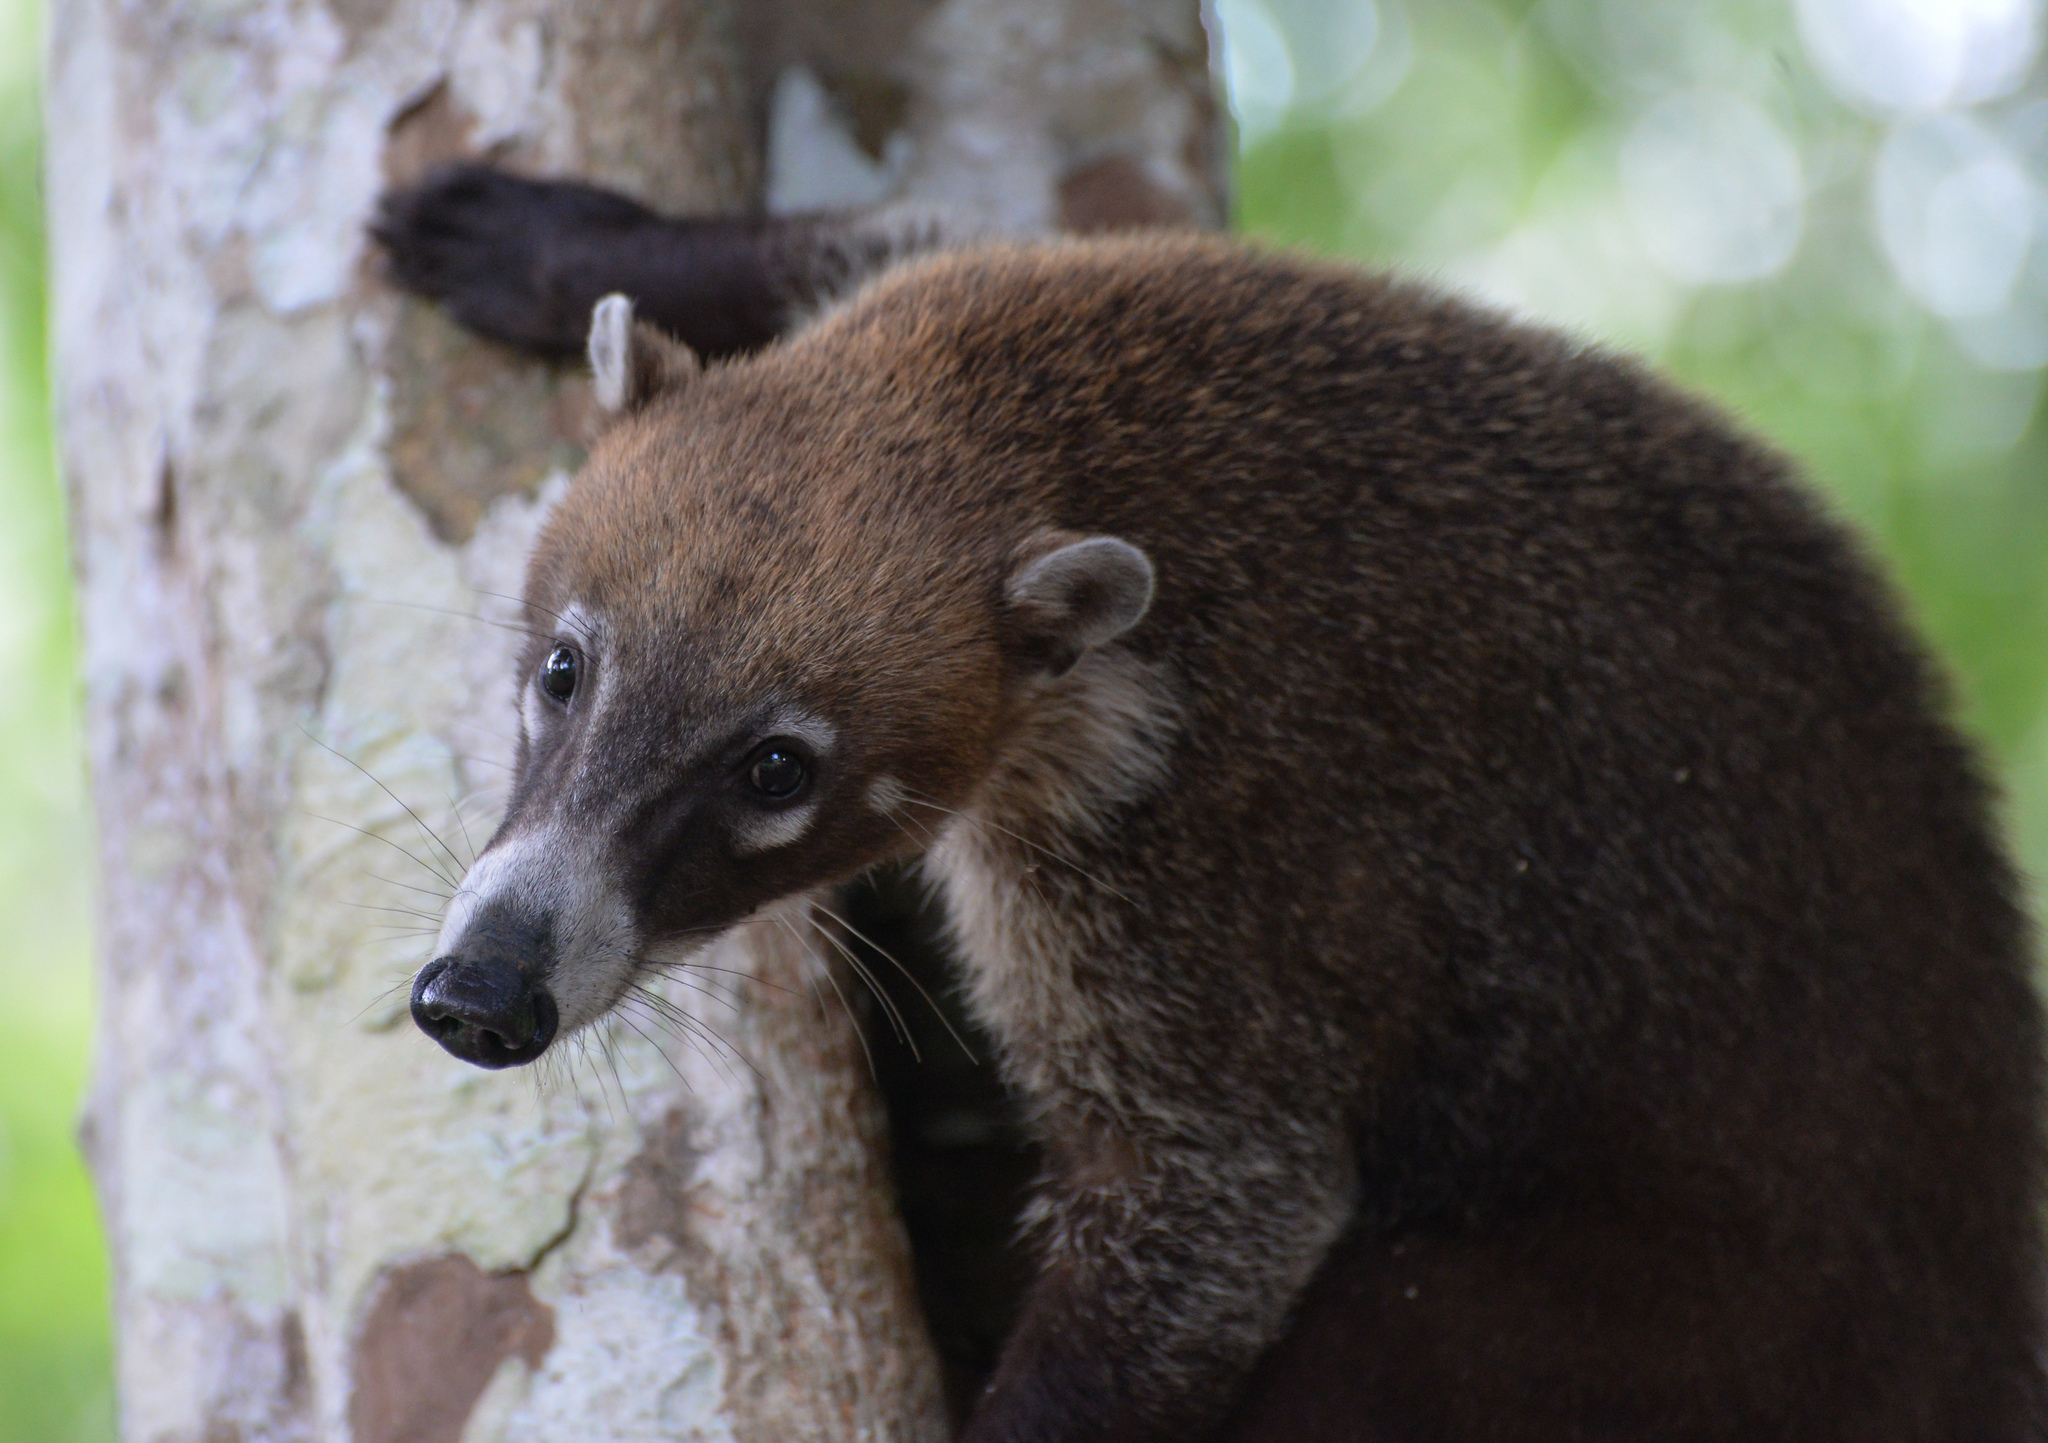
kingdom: Animalia
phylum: Chordata
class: Mammalia
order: Carnivora
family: Procyonidae
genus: Nasua
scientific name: Nasua narica
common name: White-nosed coati
